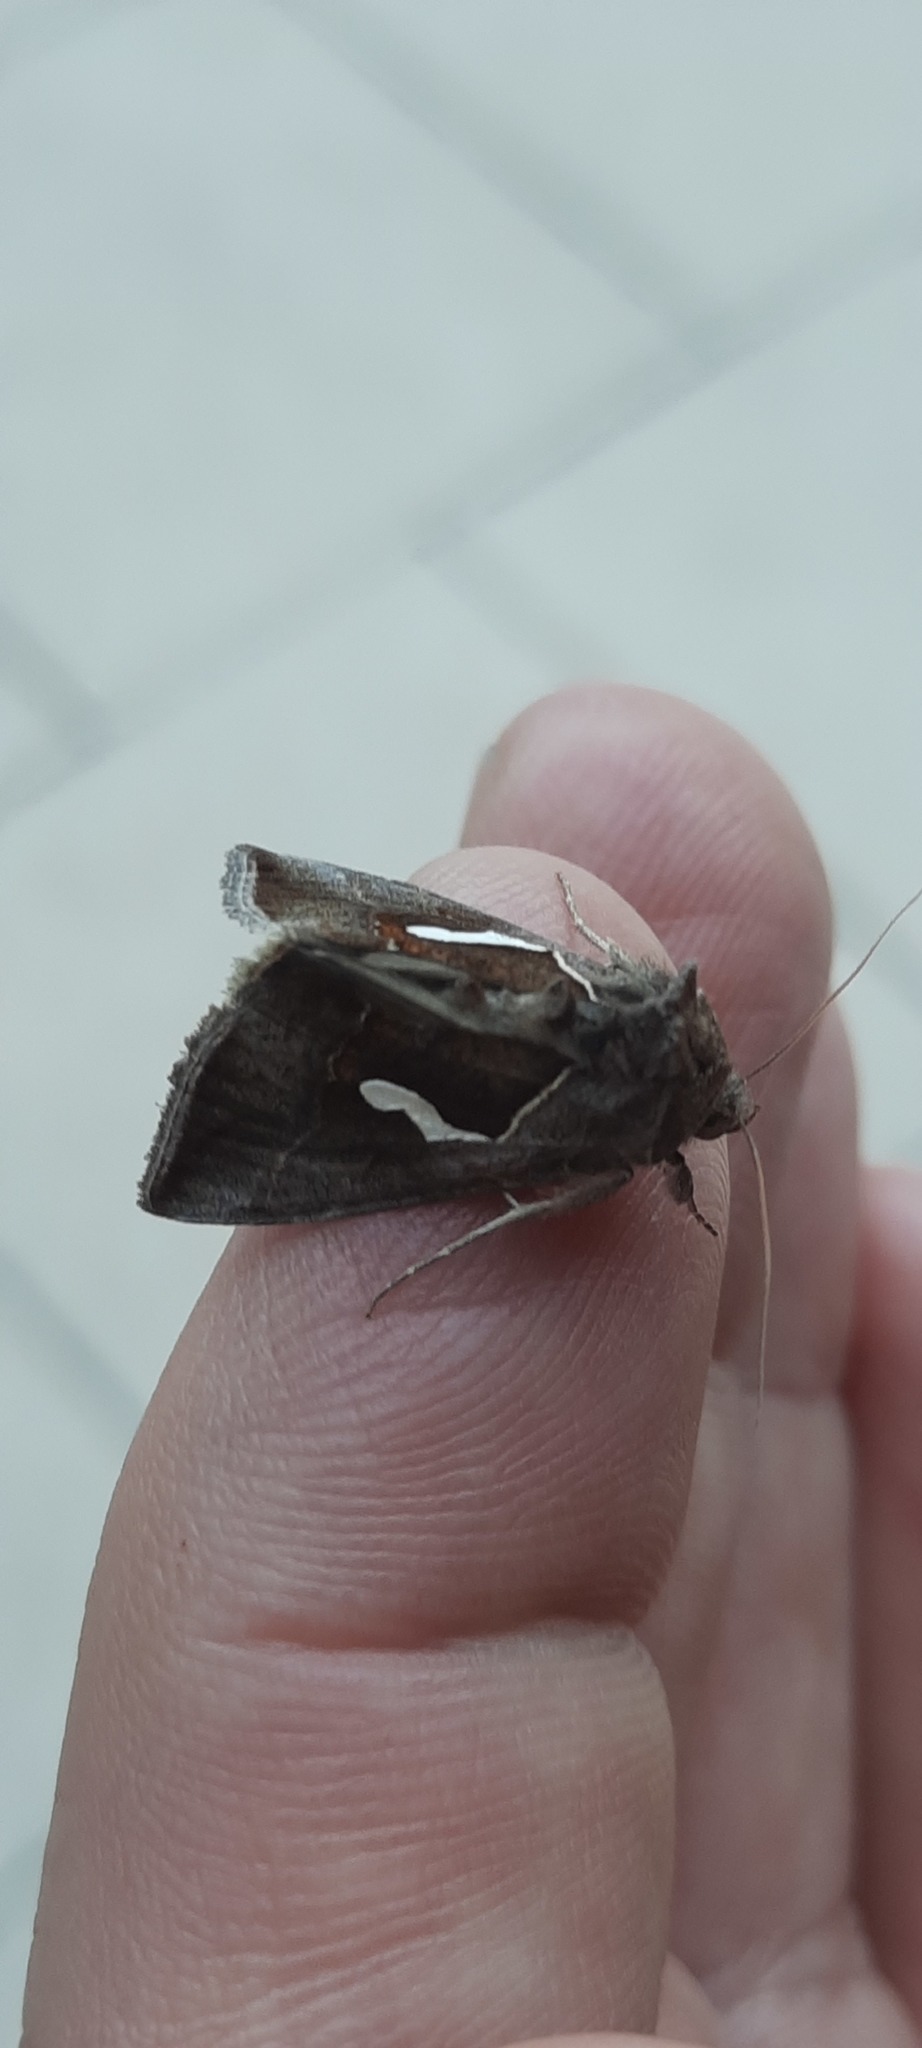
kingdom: Animalia
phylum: Arthropoda
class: Insecta
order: Lepidoptera
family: Noctuidae
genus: Macdunnoughia
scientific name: Macdunnoughia confusa
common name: Dewick's plusia
